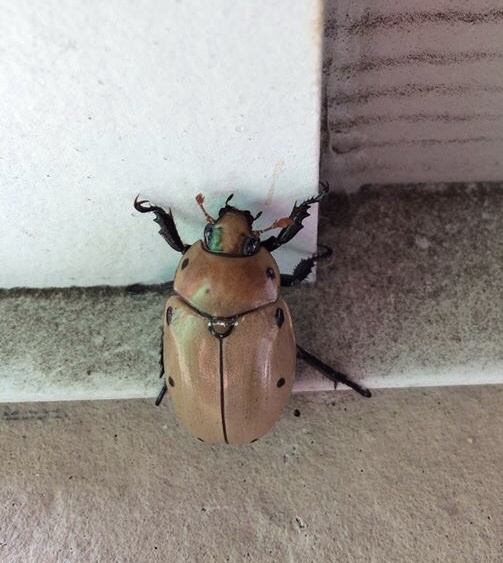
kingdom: Animalia
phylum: Arthropoda
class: Insecta
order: Coleoptera
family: Scarabaeidae
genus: Pelidnota
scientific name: Pelidnota punctata
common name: Grapevine beetle
